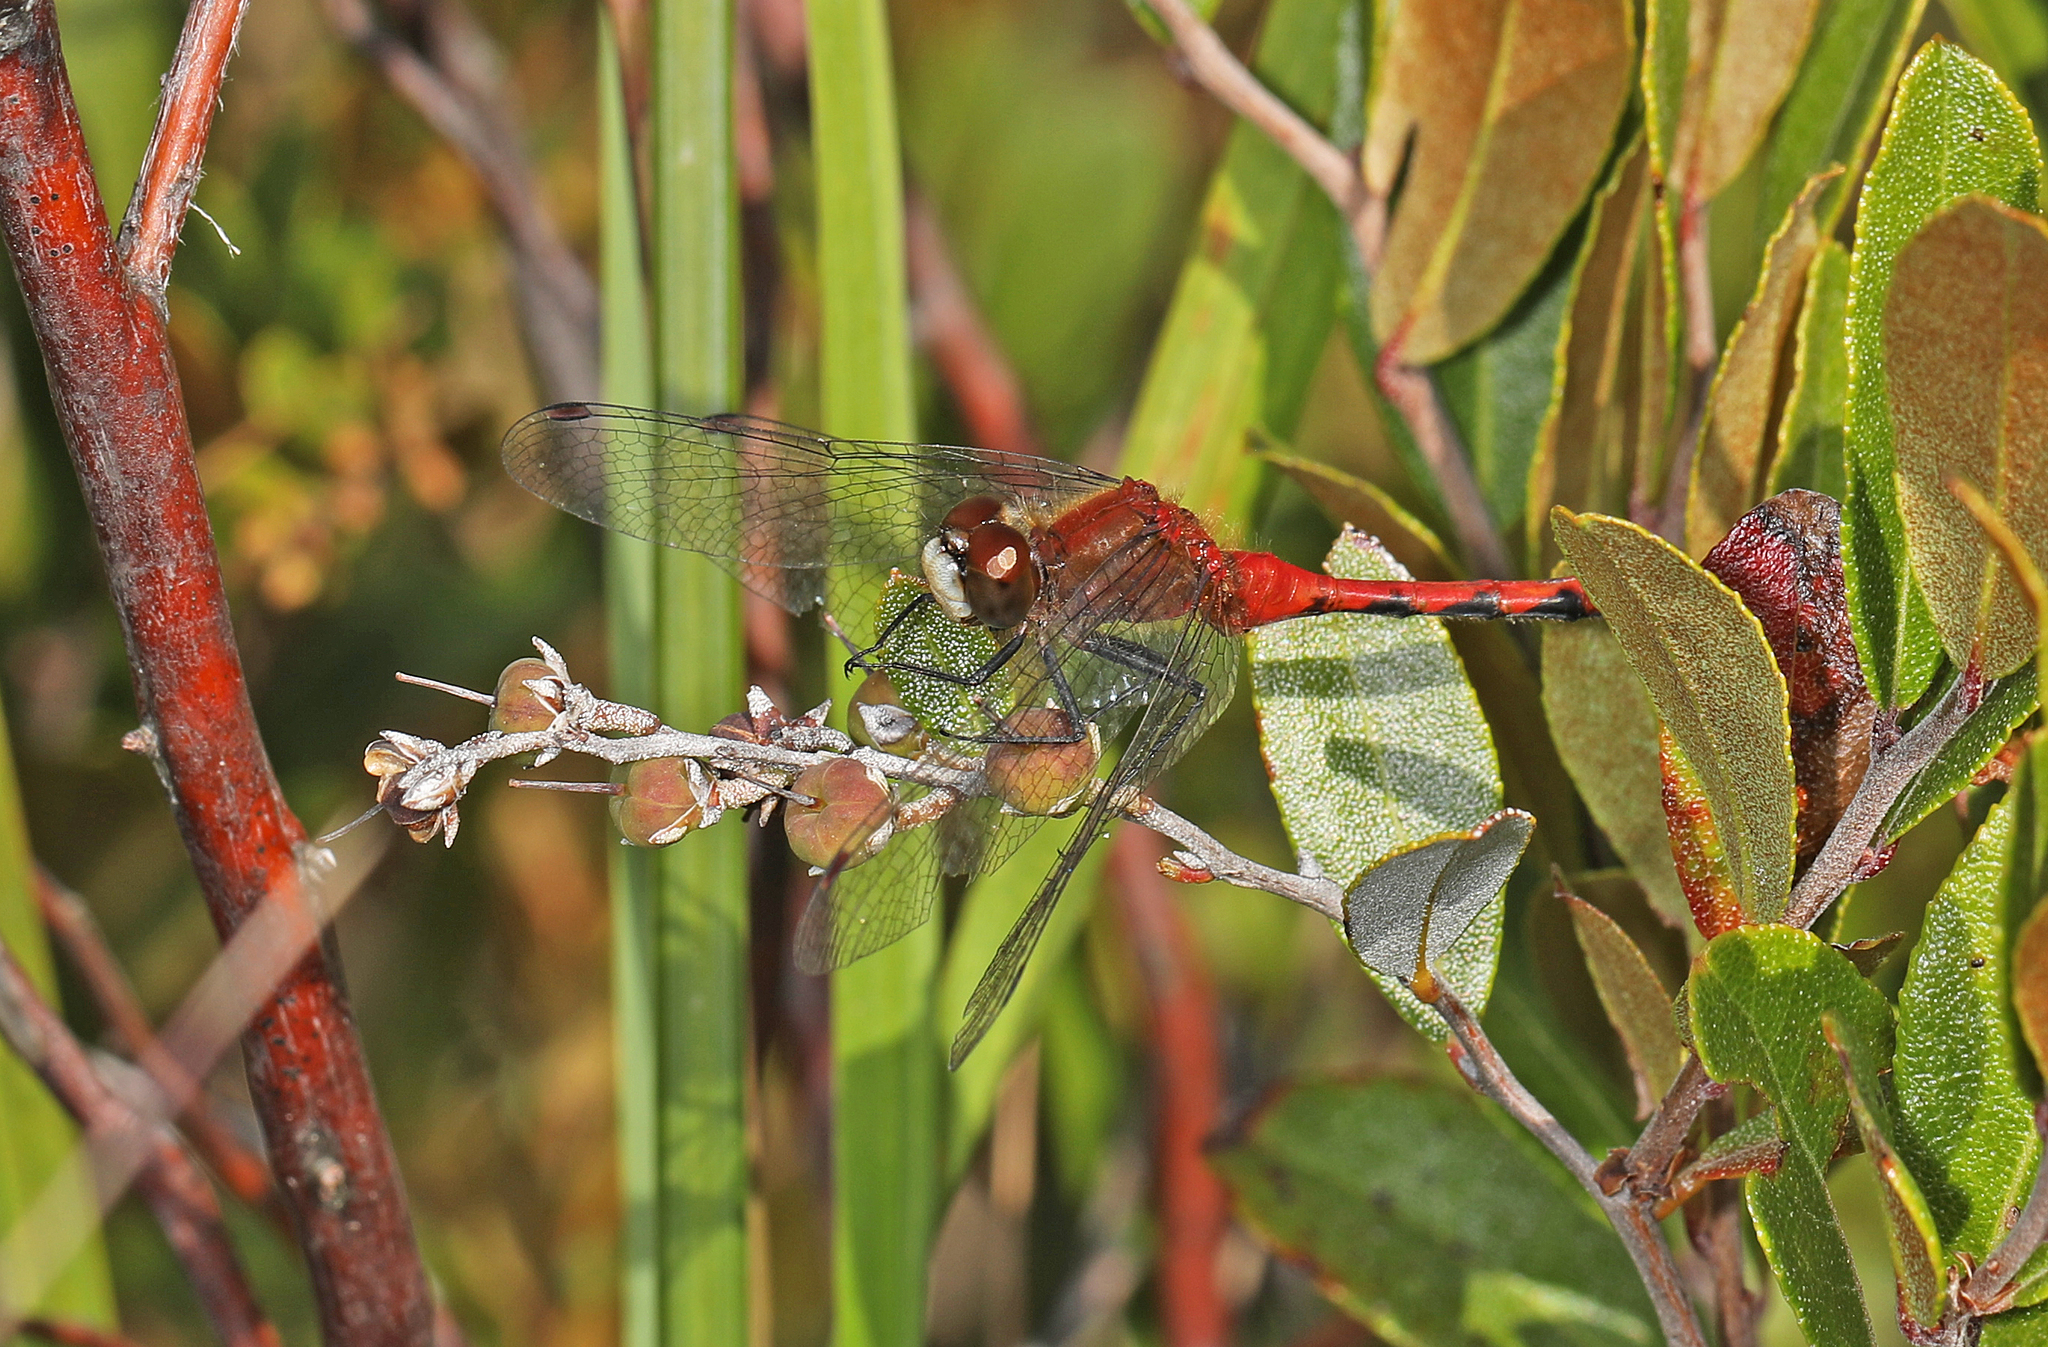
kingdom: Animalia
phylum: Arthropoda
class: Insecta
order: Odonata
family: Libellulidae
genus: Sympetrum
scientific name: Sympetrum obtrusum
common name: White-faced meadowhawk
